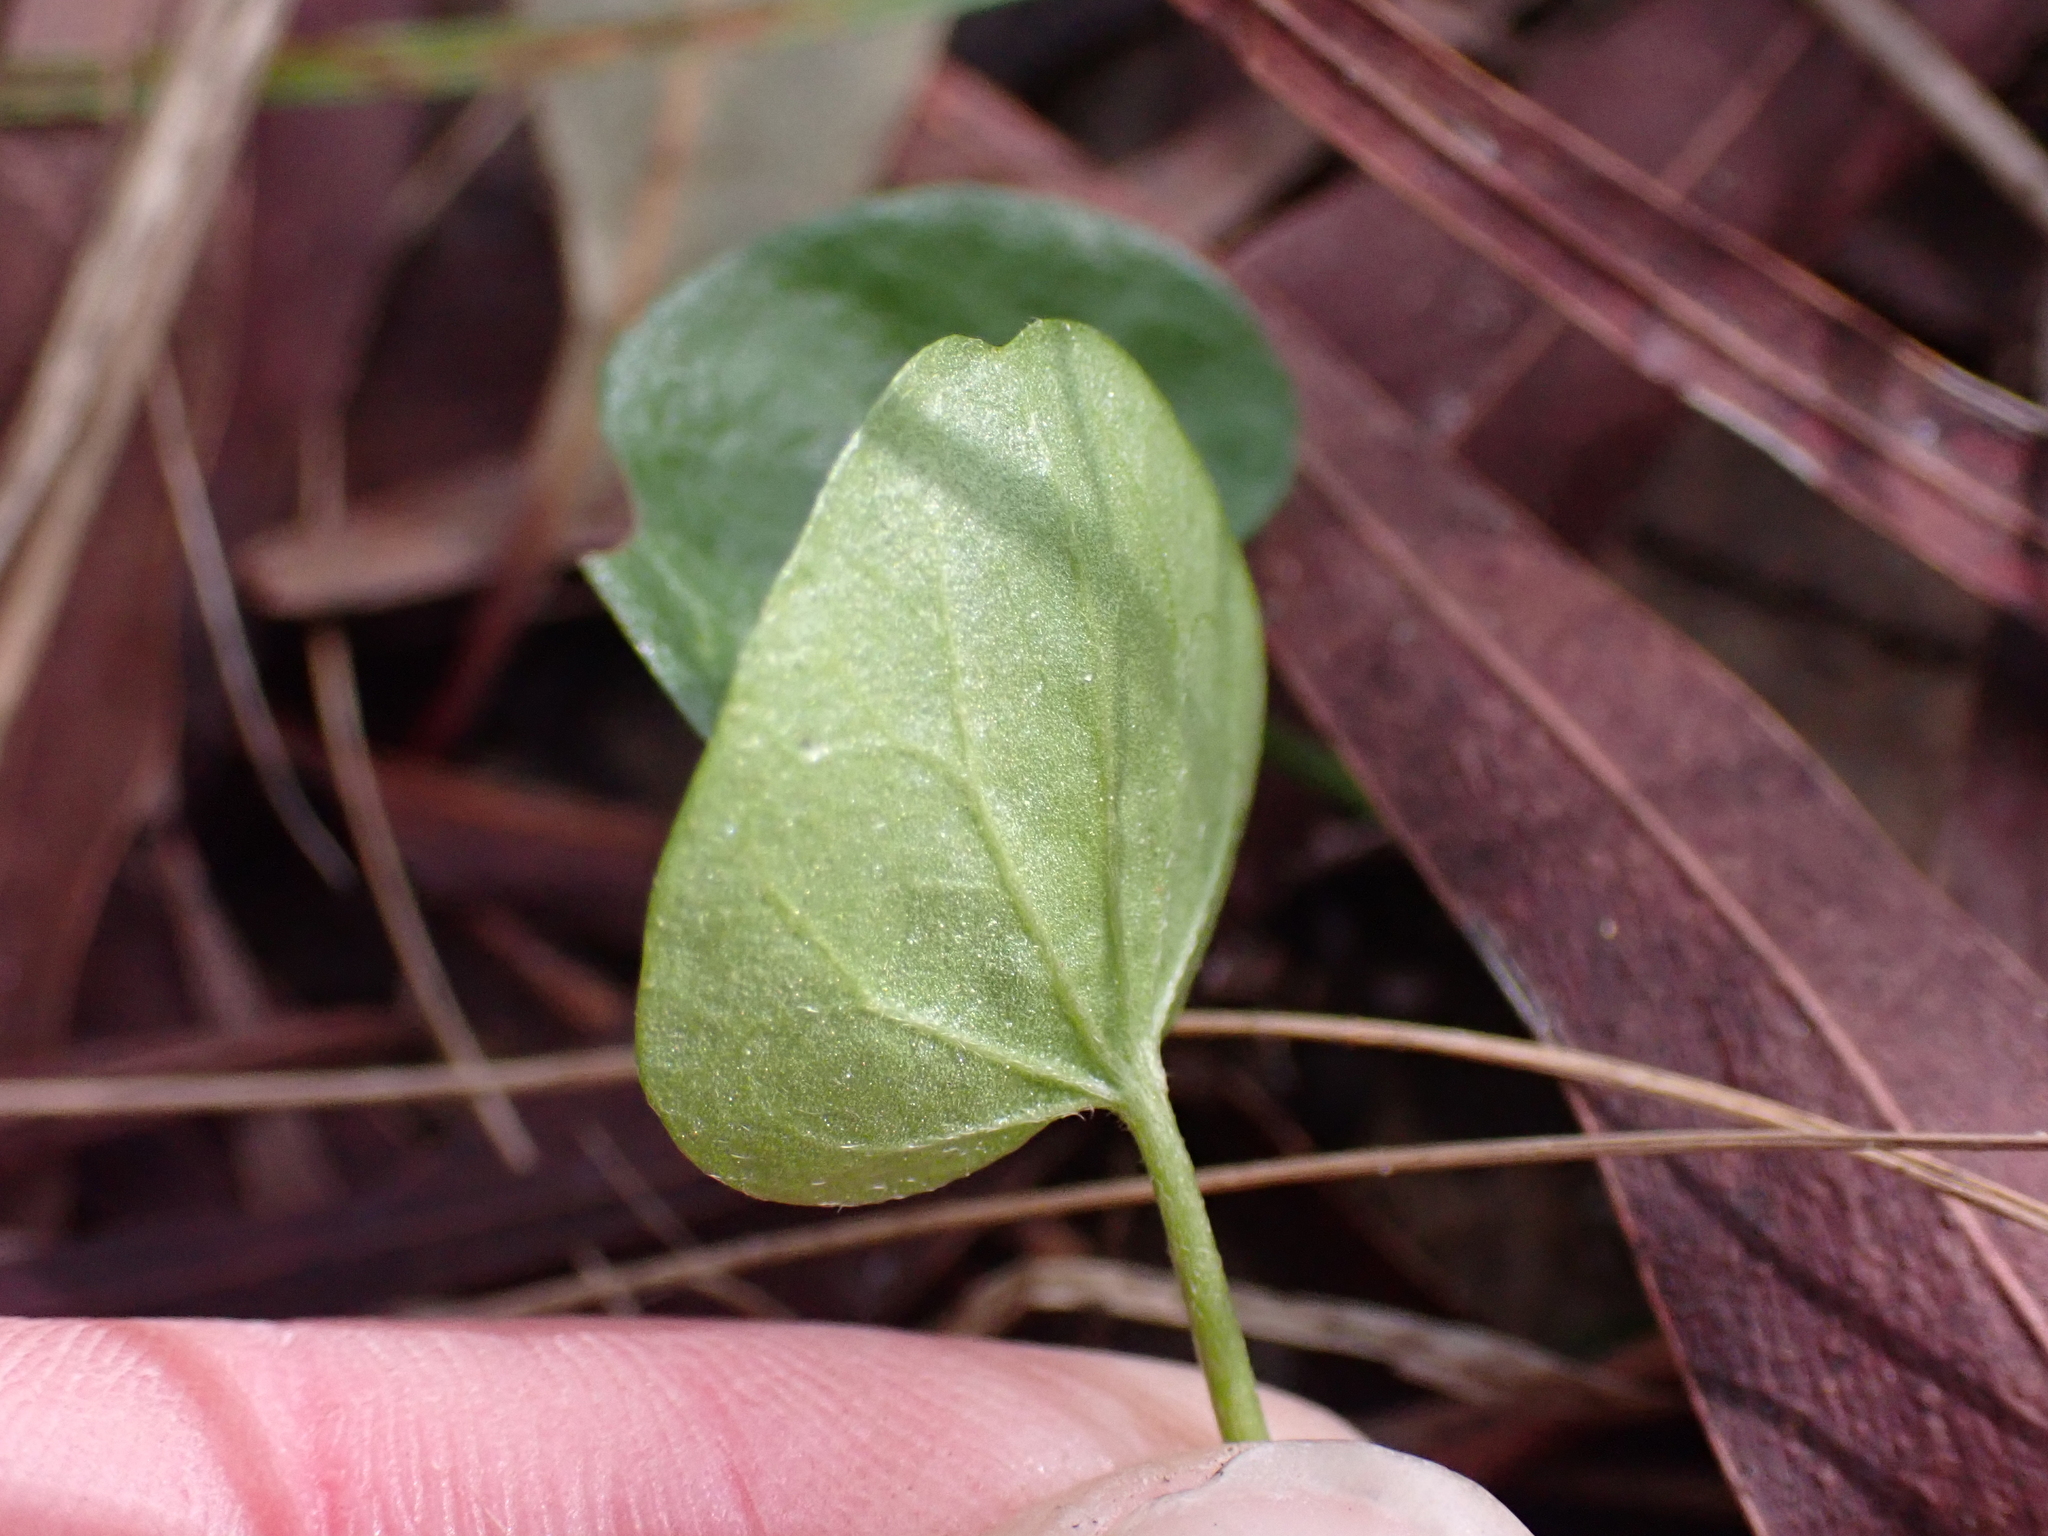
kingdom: Plantae
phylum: Tracheophyta
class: Magnoliopsida
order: Solanales
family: Convolvulaceae
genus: Dichondra
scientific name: Dichondra repens
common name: Kidneyweed
